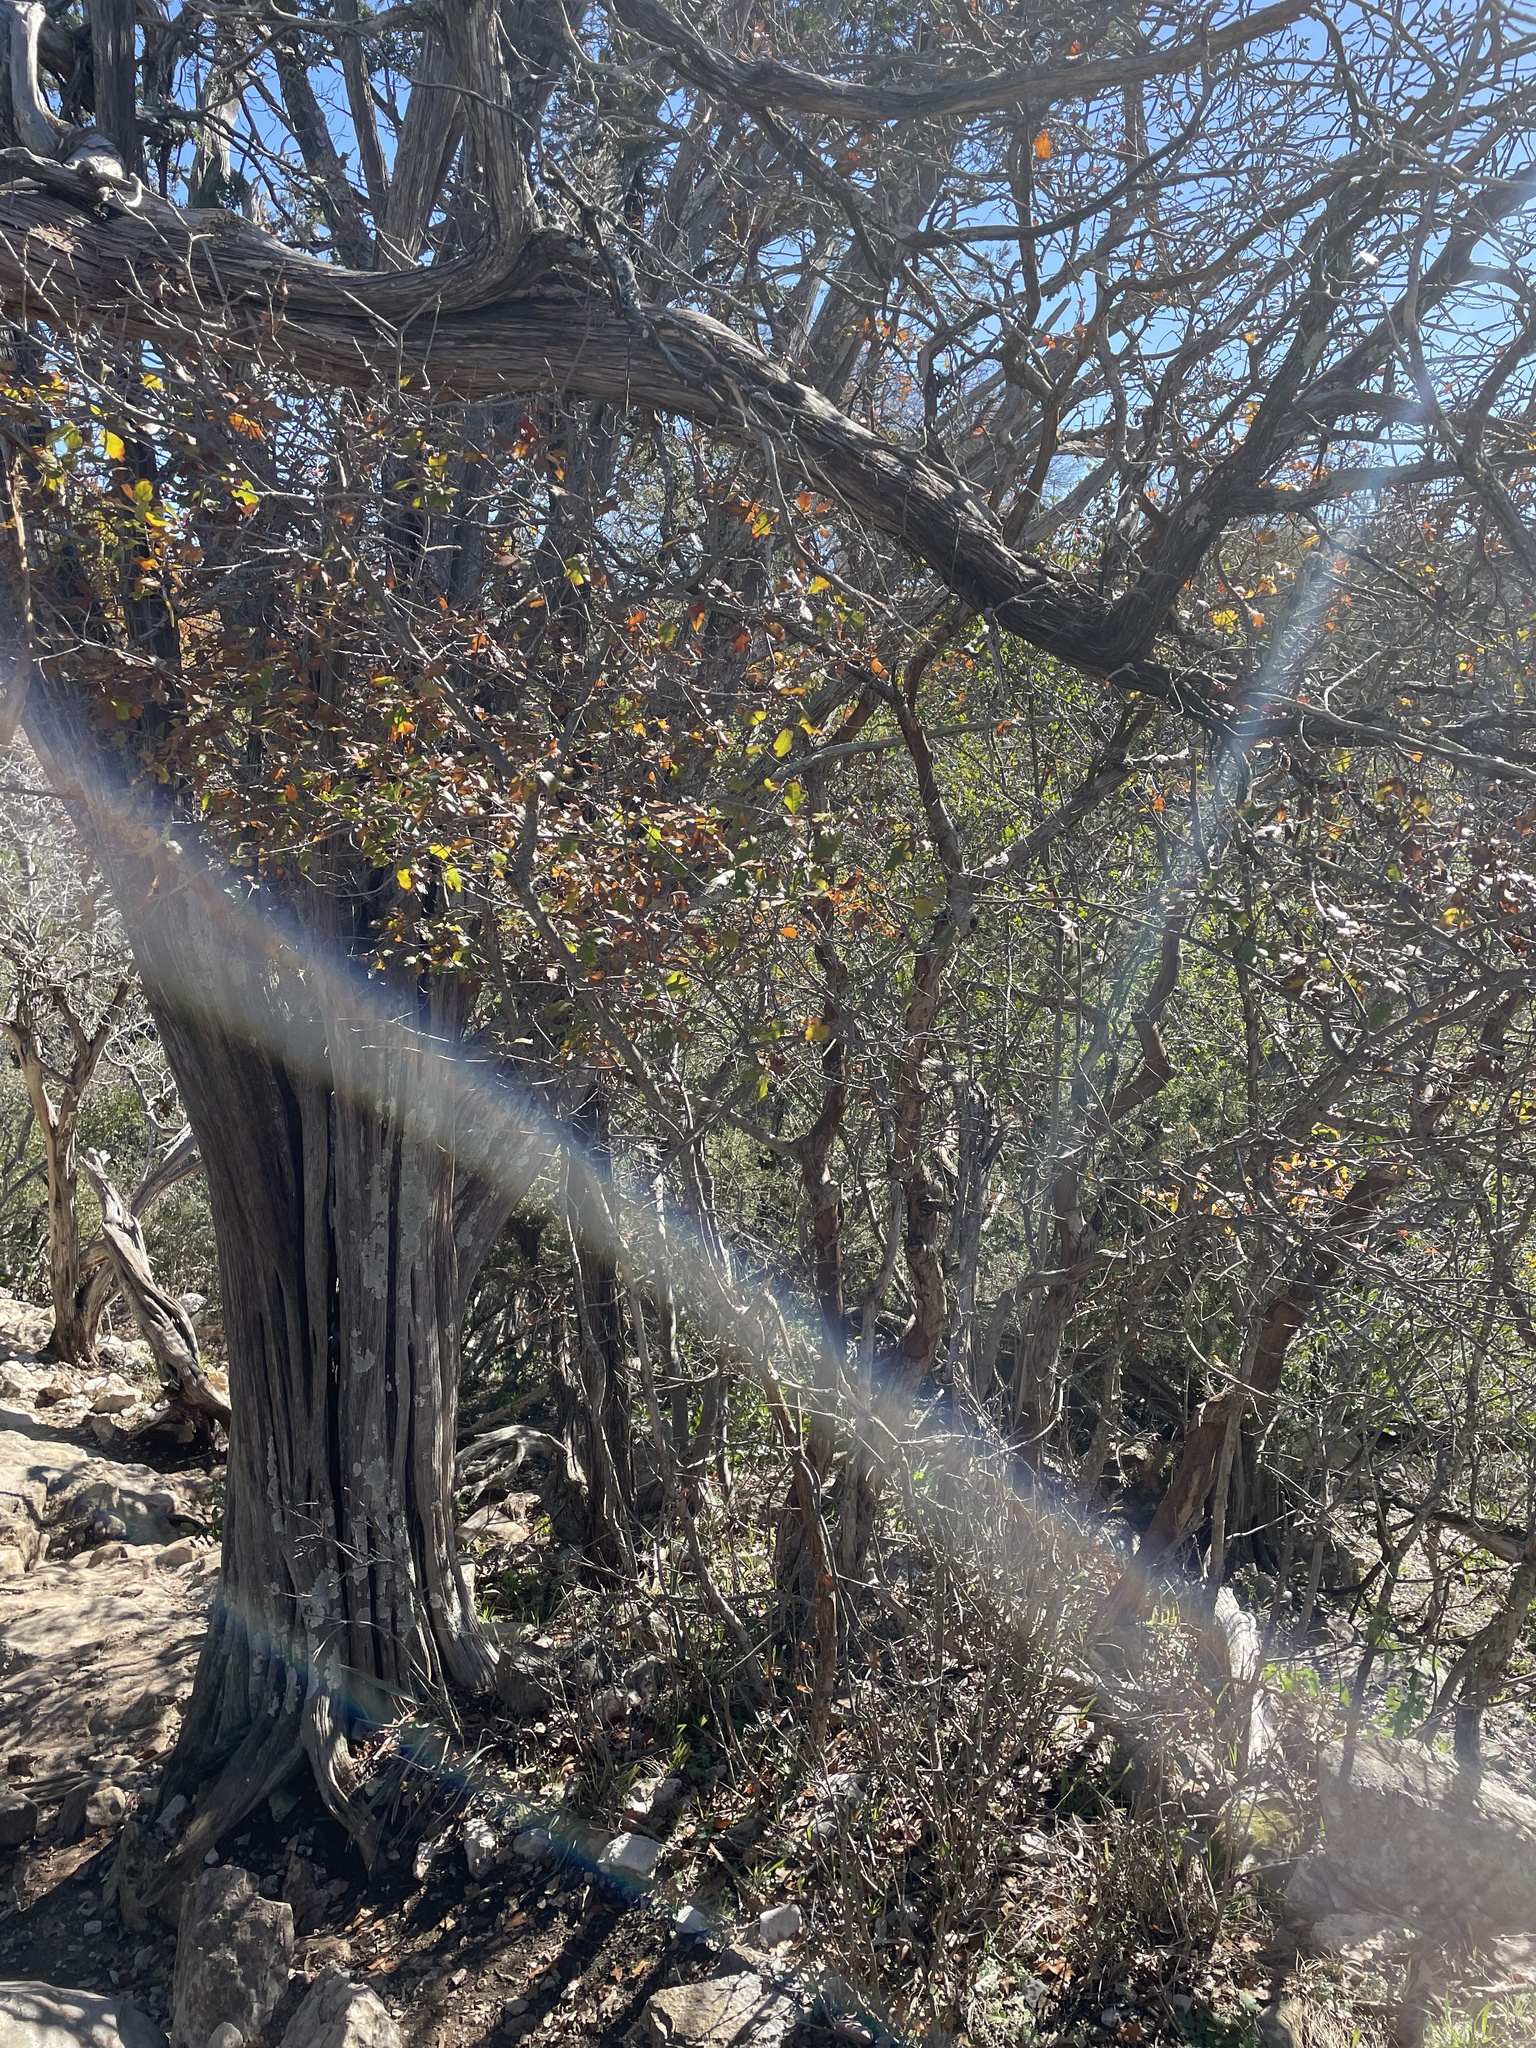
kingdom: Plantae
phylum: Tracheophyta
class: Magnoliopsida
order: Fagales
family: Fagaceae
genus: Quercus
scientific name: Quercus sinuata
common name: Durand oak
